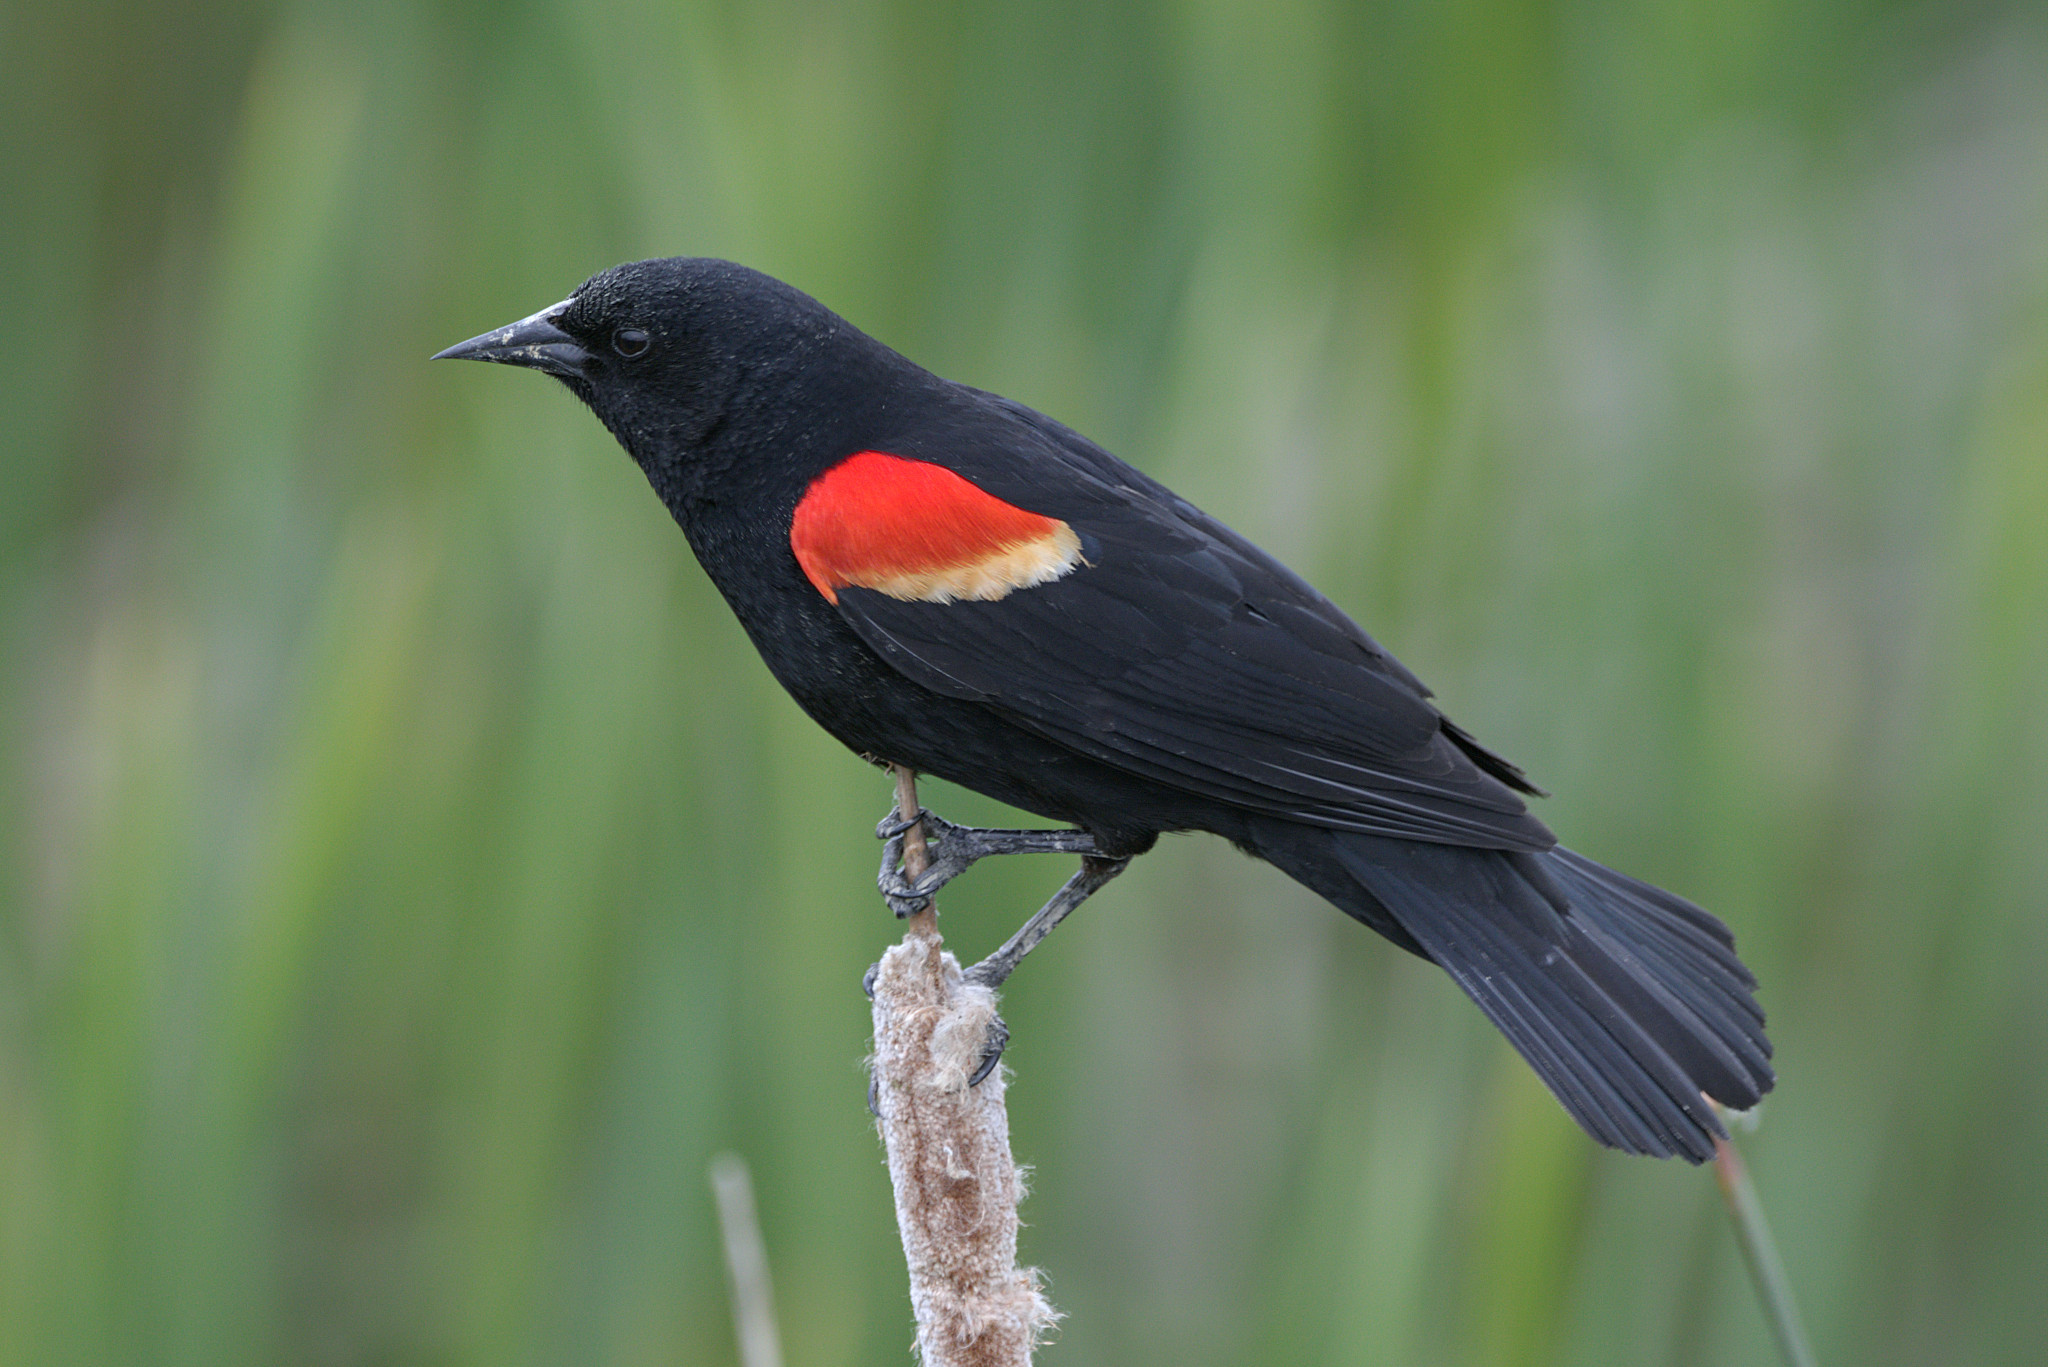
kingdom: Animalia
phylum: Chordata
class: Aves
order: Passeriformes
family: Icteridae
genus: Agelaius
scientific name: Agelaius phoeniceus
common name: Red-winged blackbird
